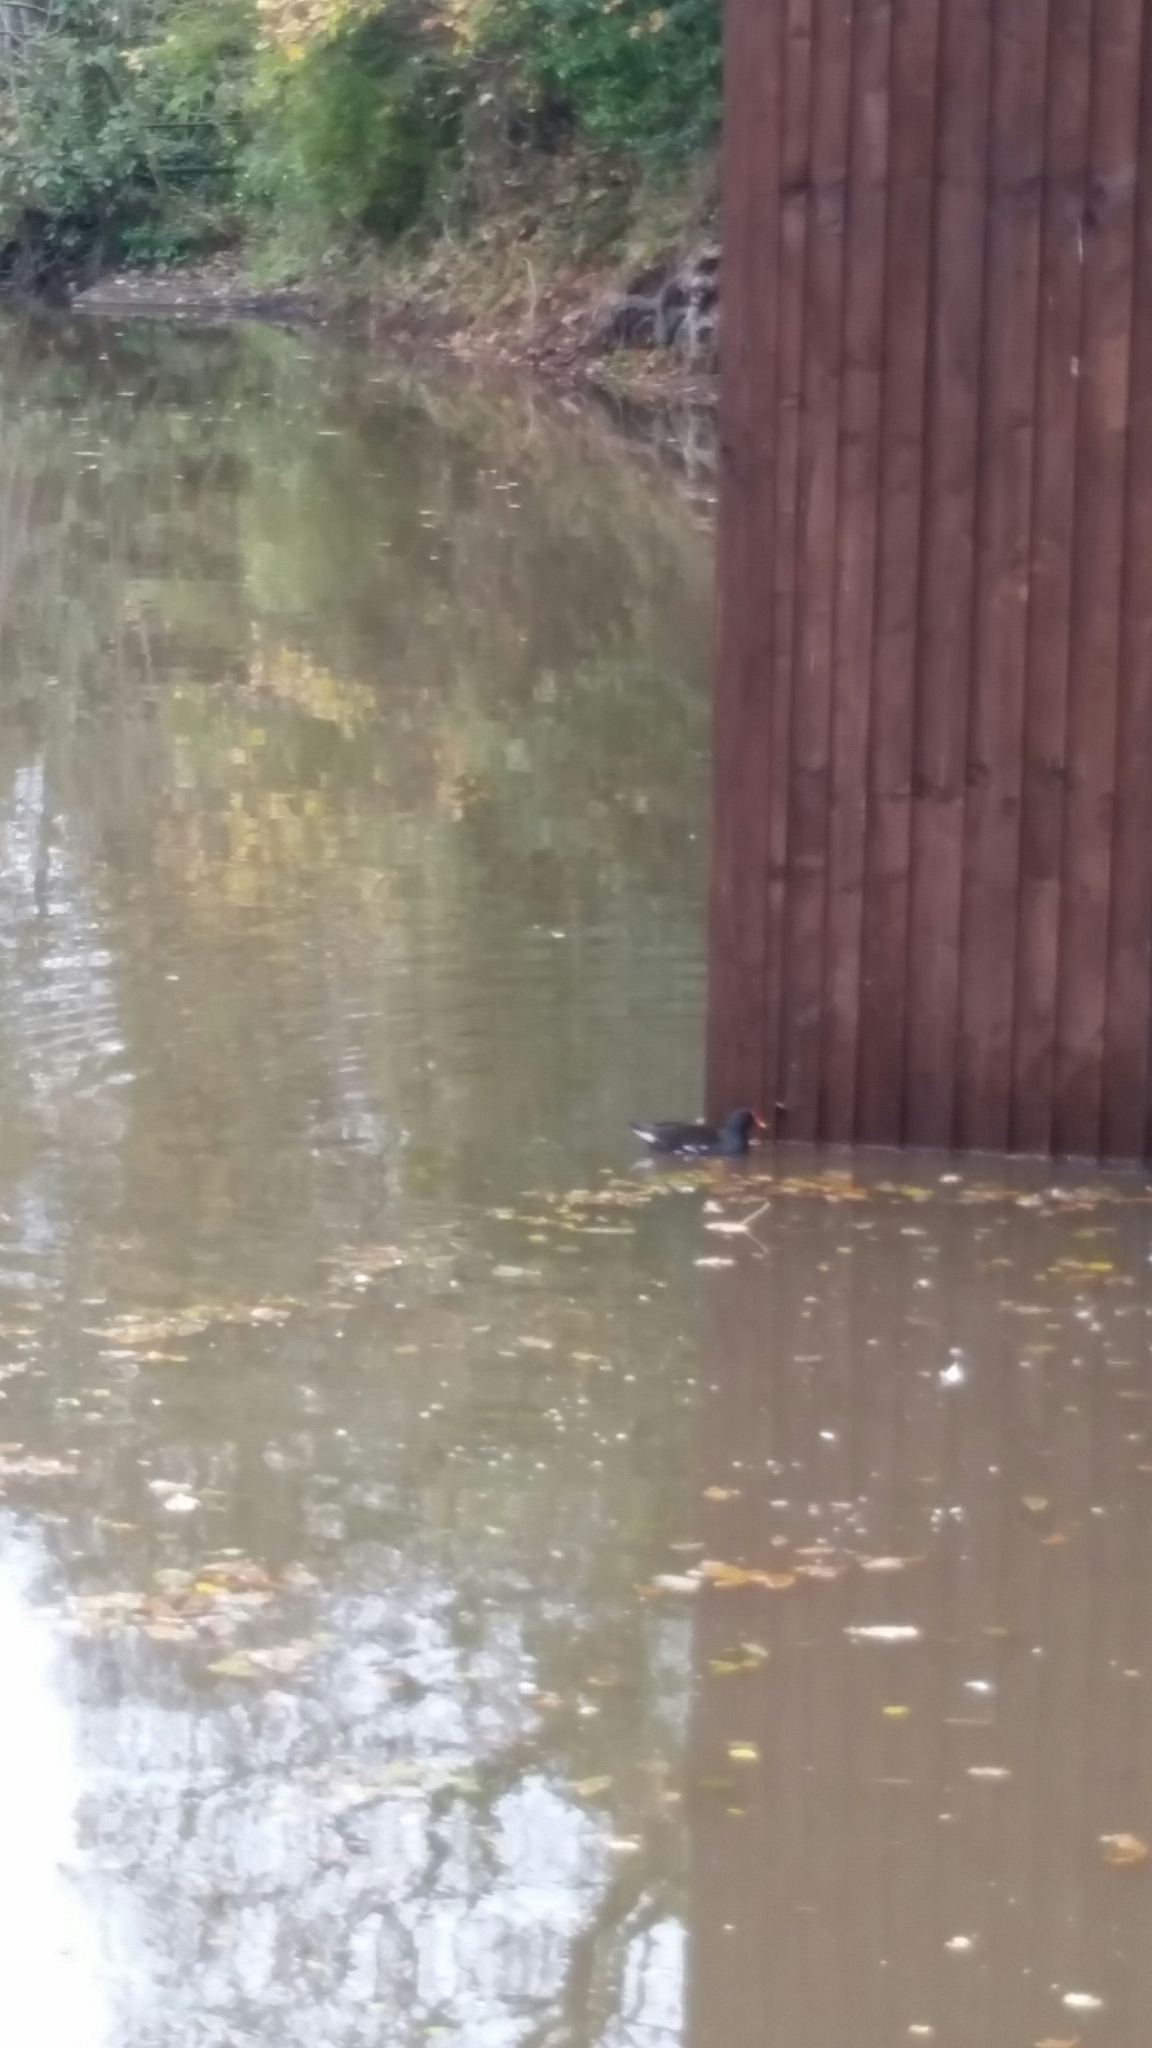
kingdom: Animalia
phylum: Chordata
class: Aves
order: Gruiformes
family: Rallidae
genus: Gallinula
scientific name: Gallinula chloropus
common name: Common moorhen
